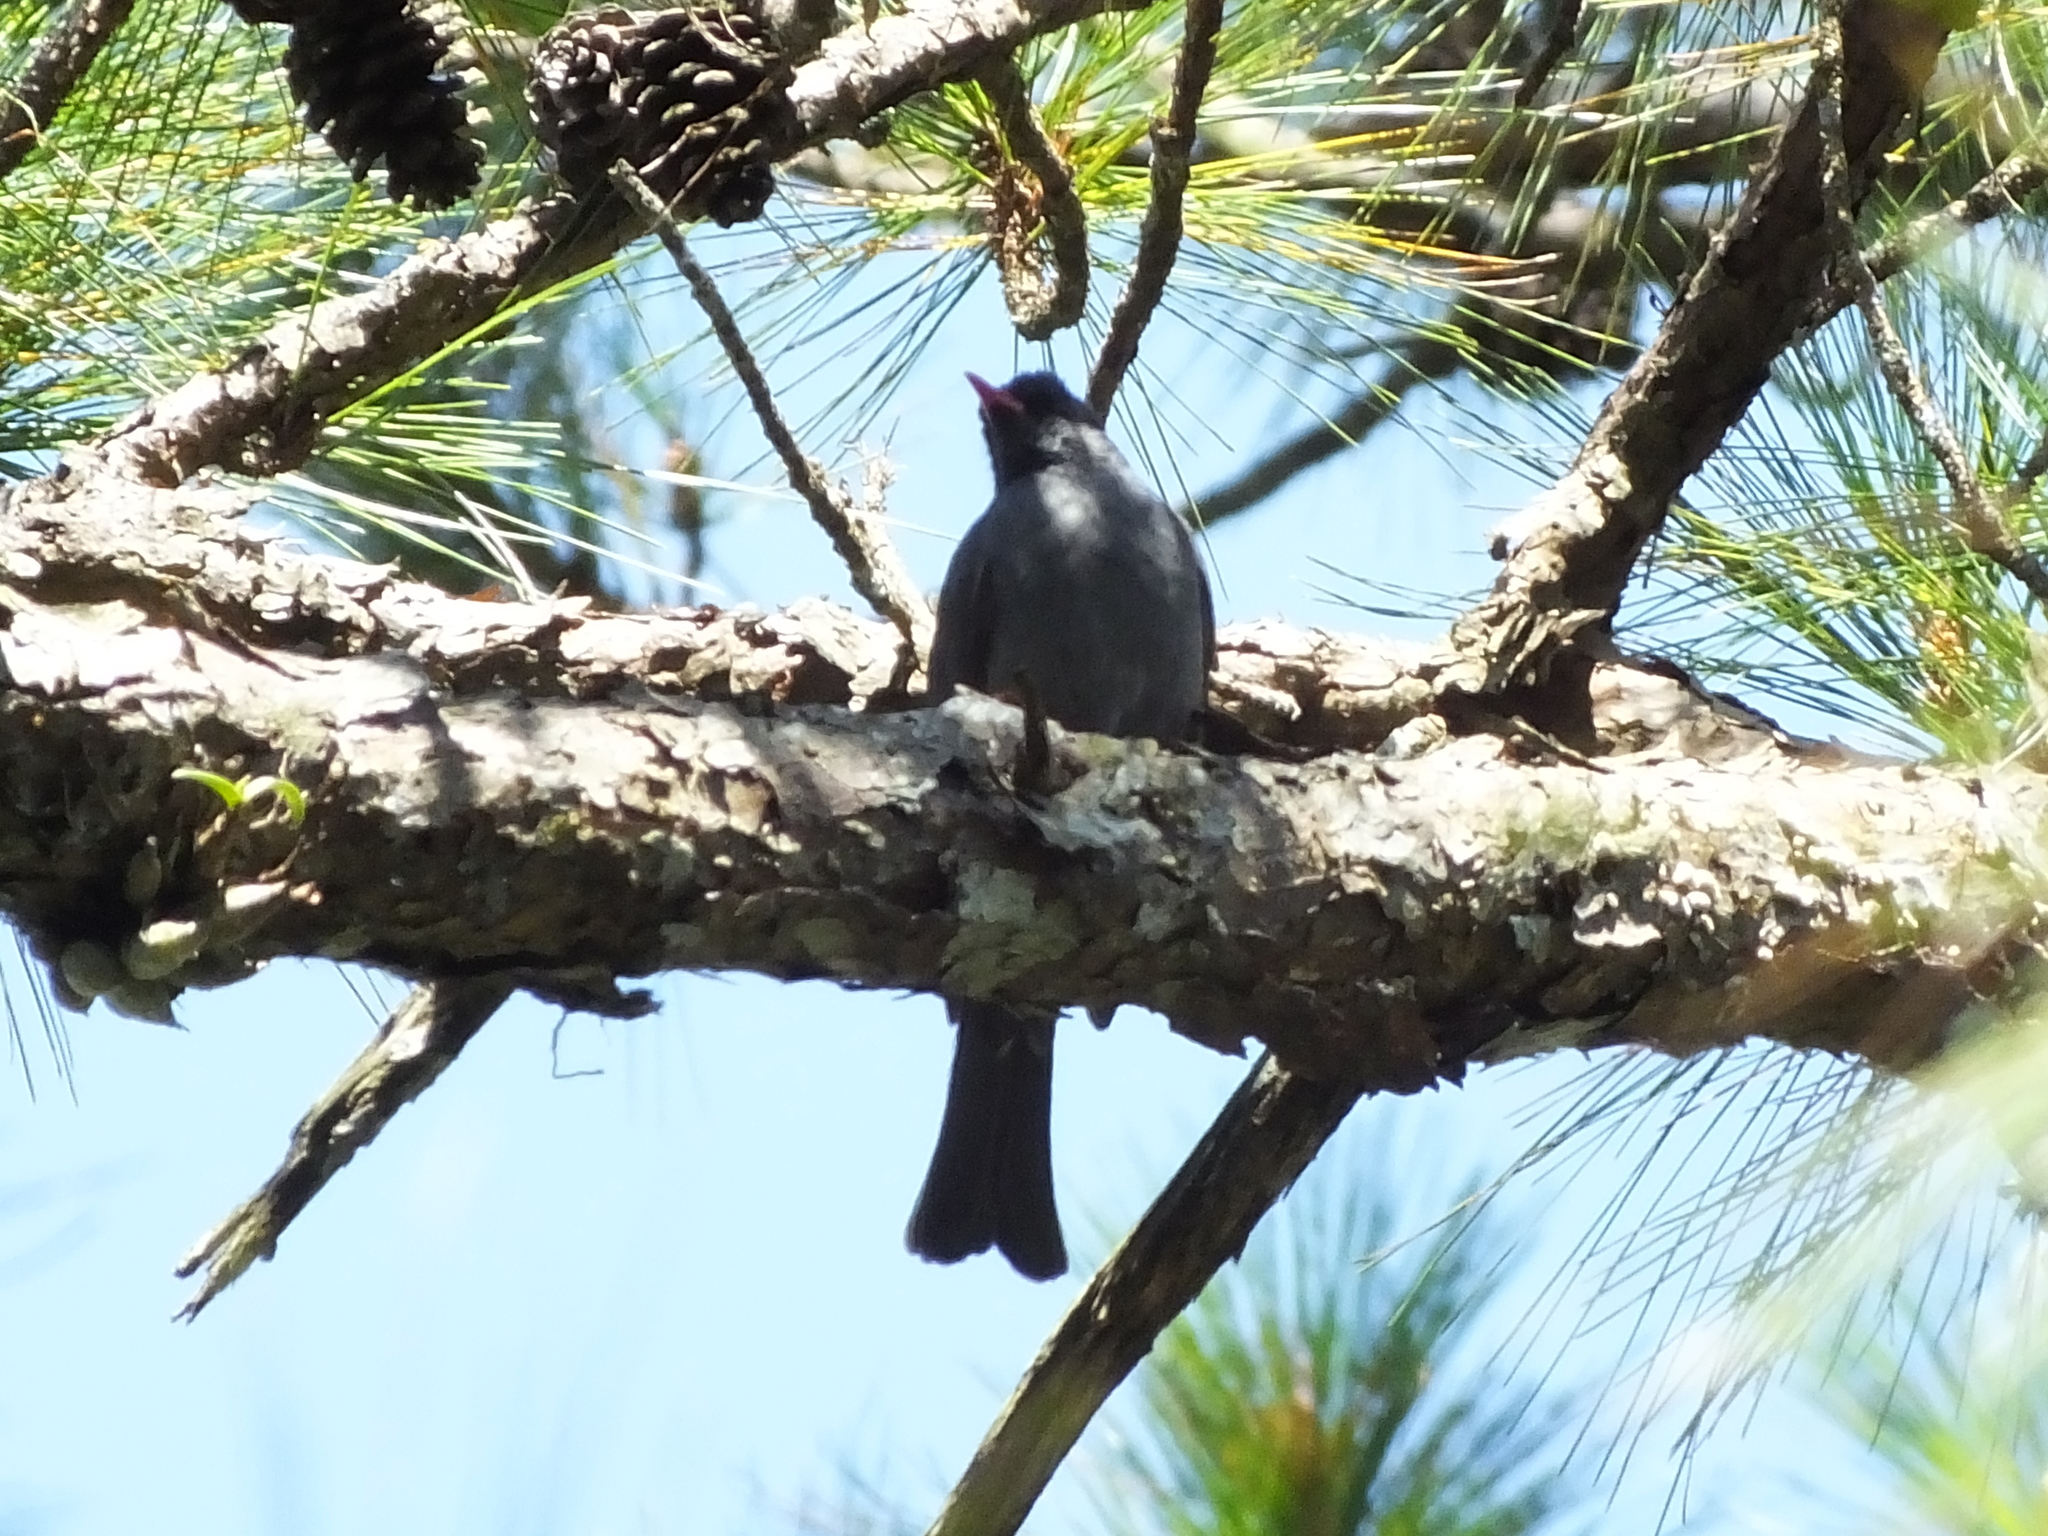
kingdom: Animalia
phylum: Chordata
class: Aves
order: Passeriformes
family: Pycnonotidae
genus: Hypsipetes
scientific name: Hypsipetes leucocephalus
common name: Black bulbul
